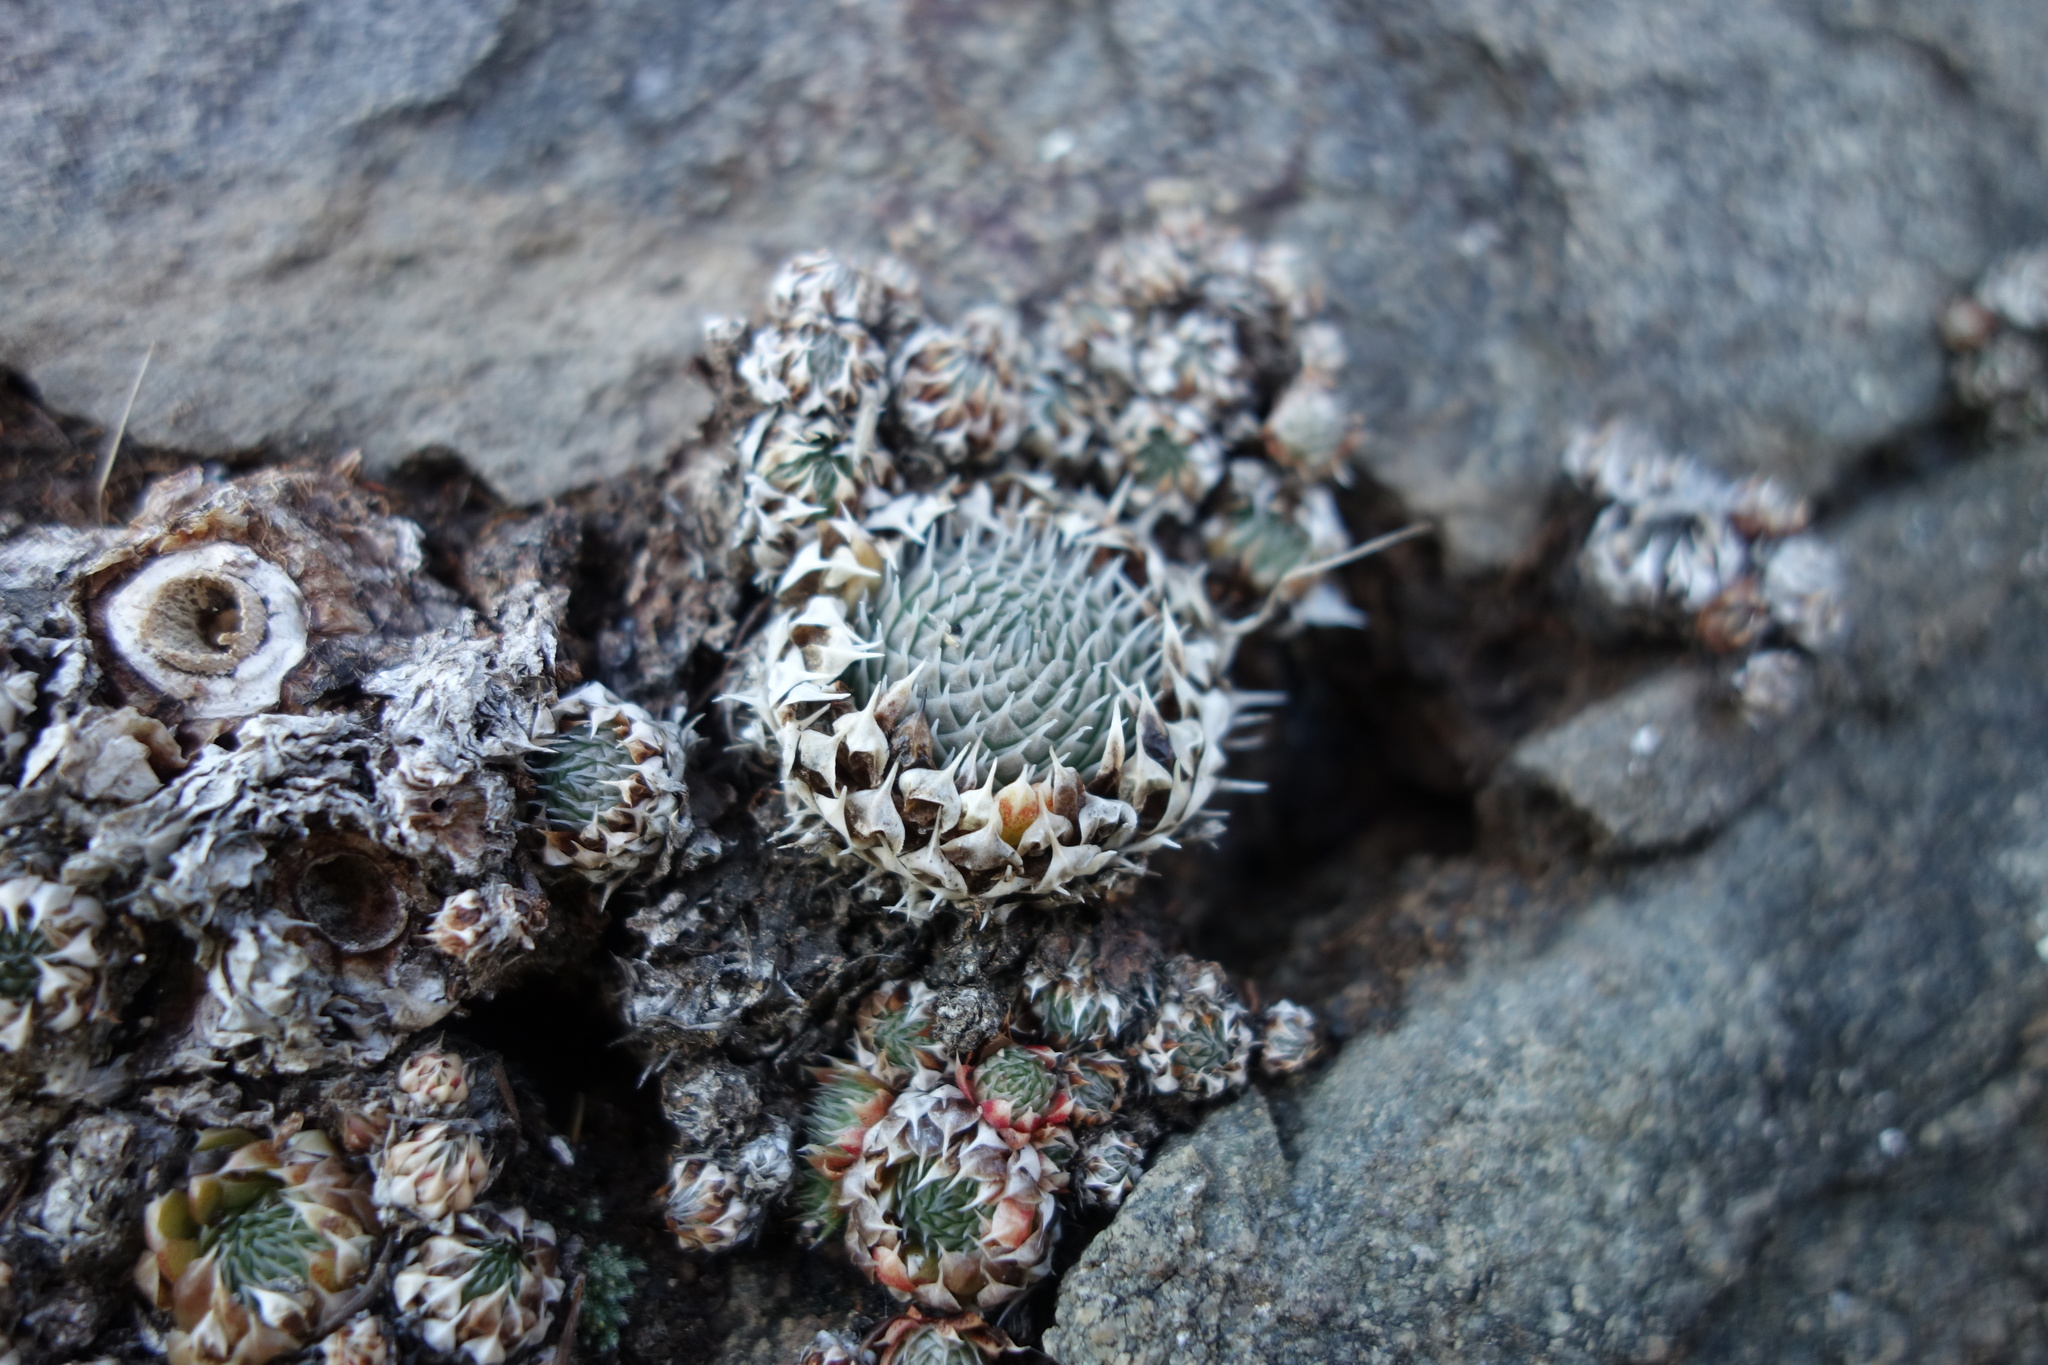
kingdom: Plantae
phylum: Tracheophyta
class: Magnoliopsida
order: Saxifragales
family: Crassulaceae
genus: Orostachys
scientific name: Orostachys spinosa
